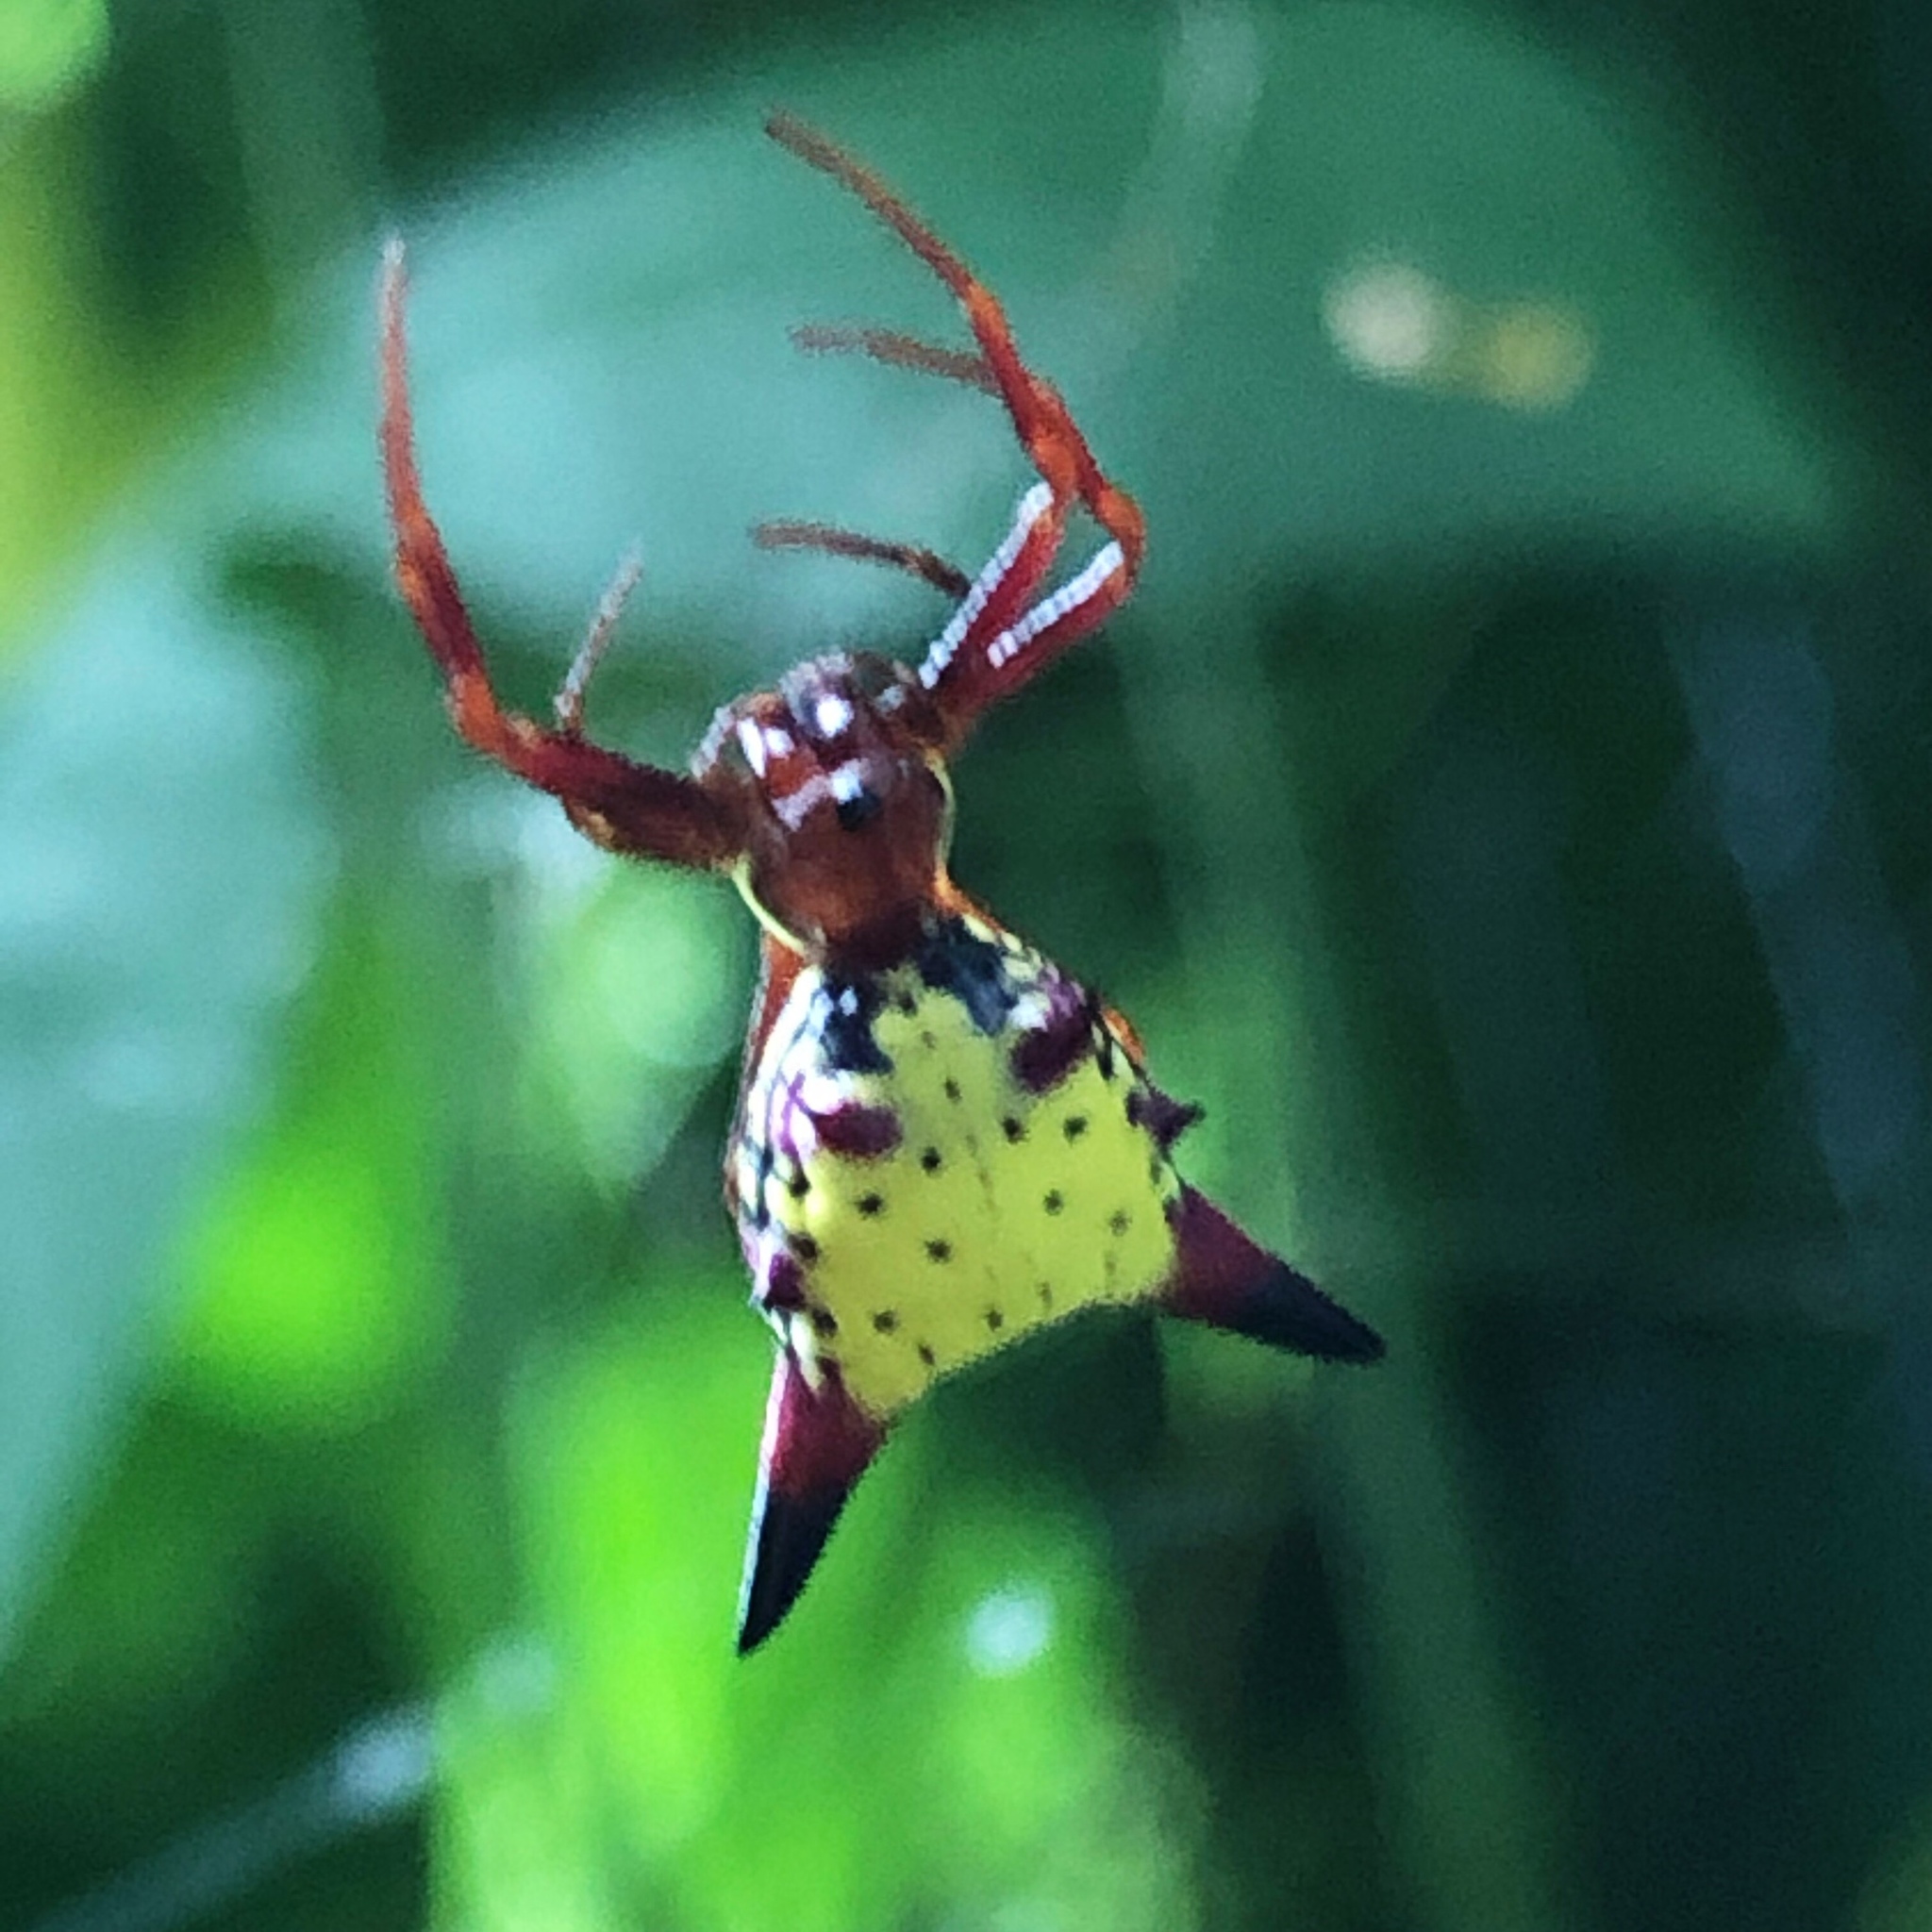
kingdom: Animalia
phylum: Arthropoda
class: Arachnida
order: Araneae
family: Araneidae
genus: Micrathena
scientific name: Micrathena sagittata
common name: Orb weavers
